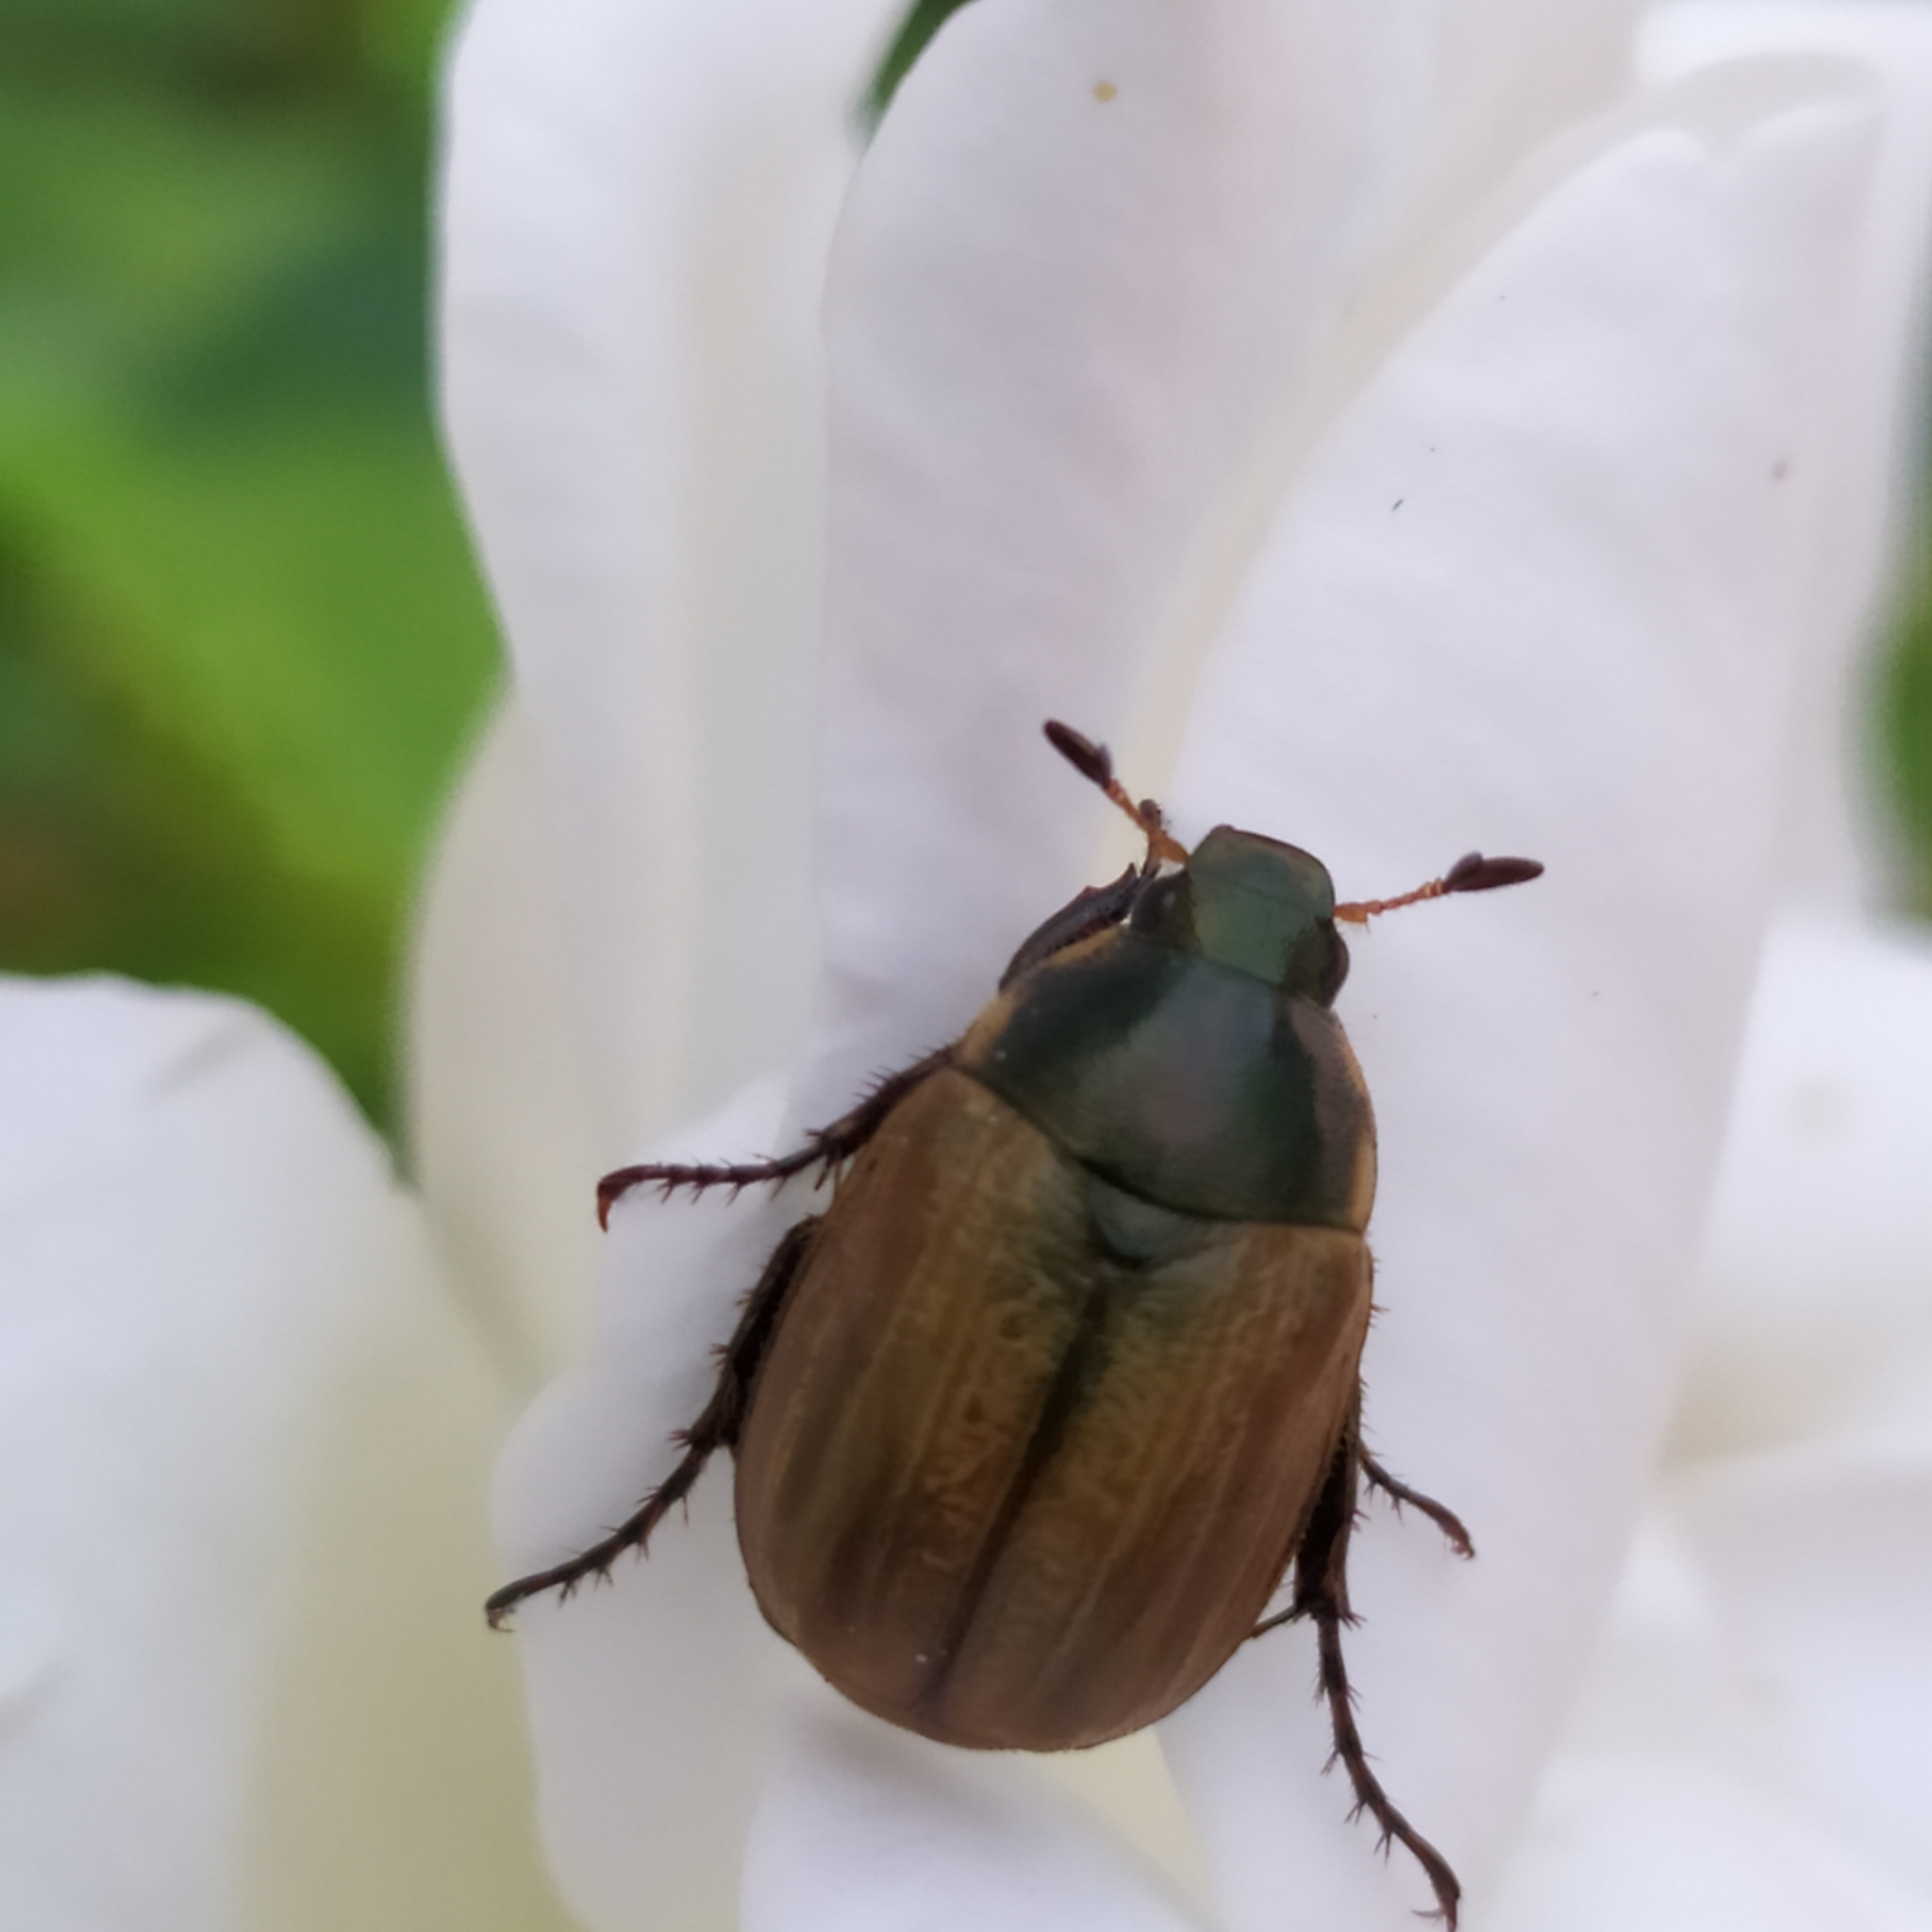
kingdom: Animalia
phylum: Arthropoda
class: Insecta
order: Coleoptera
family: Scarabaeidae
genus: Anomala
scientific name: Anomala dubia
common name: Dune chafer
